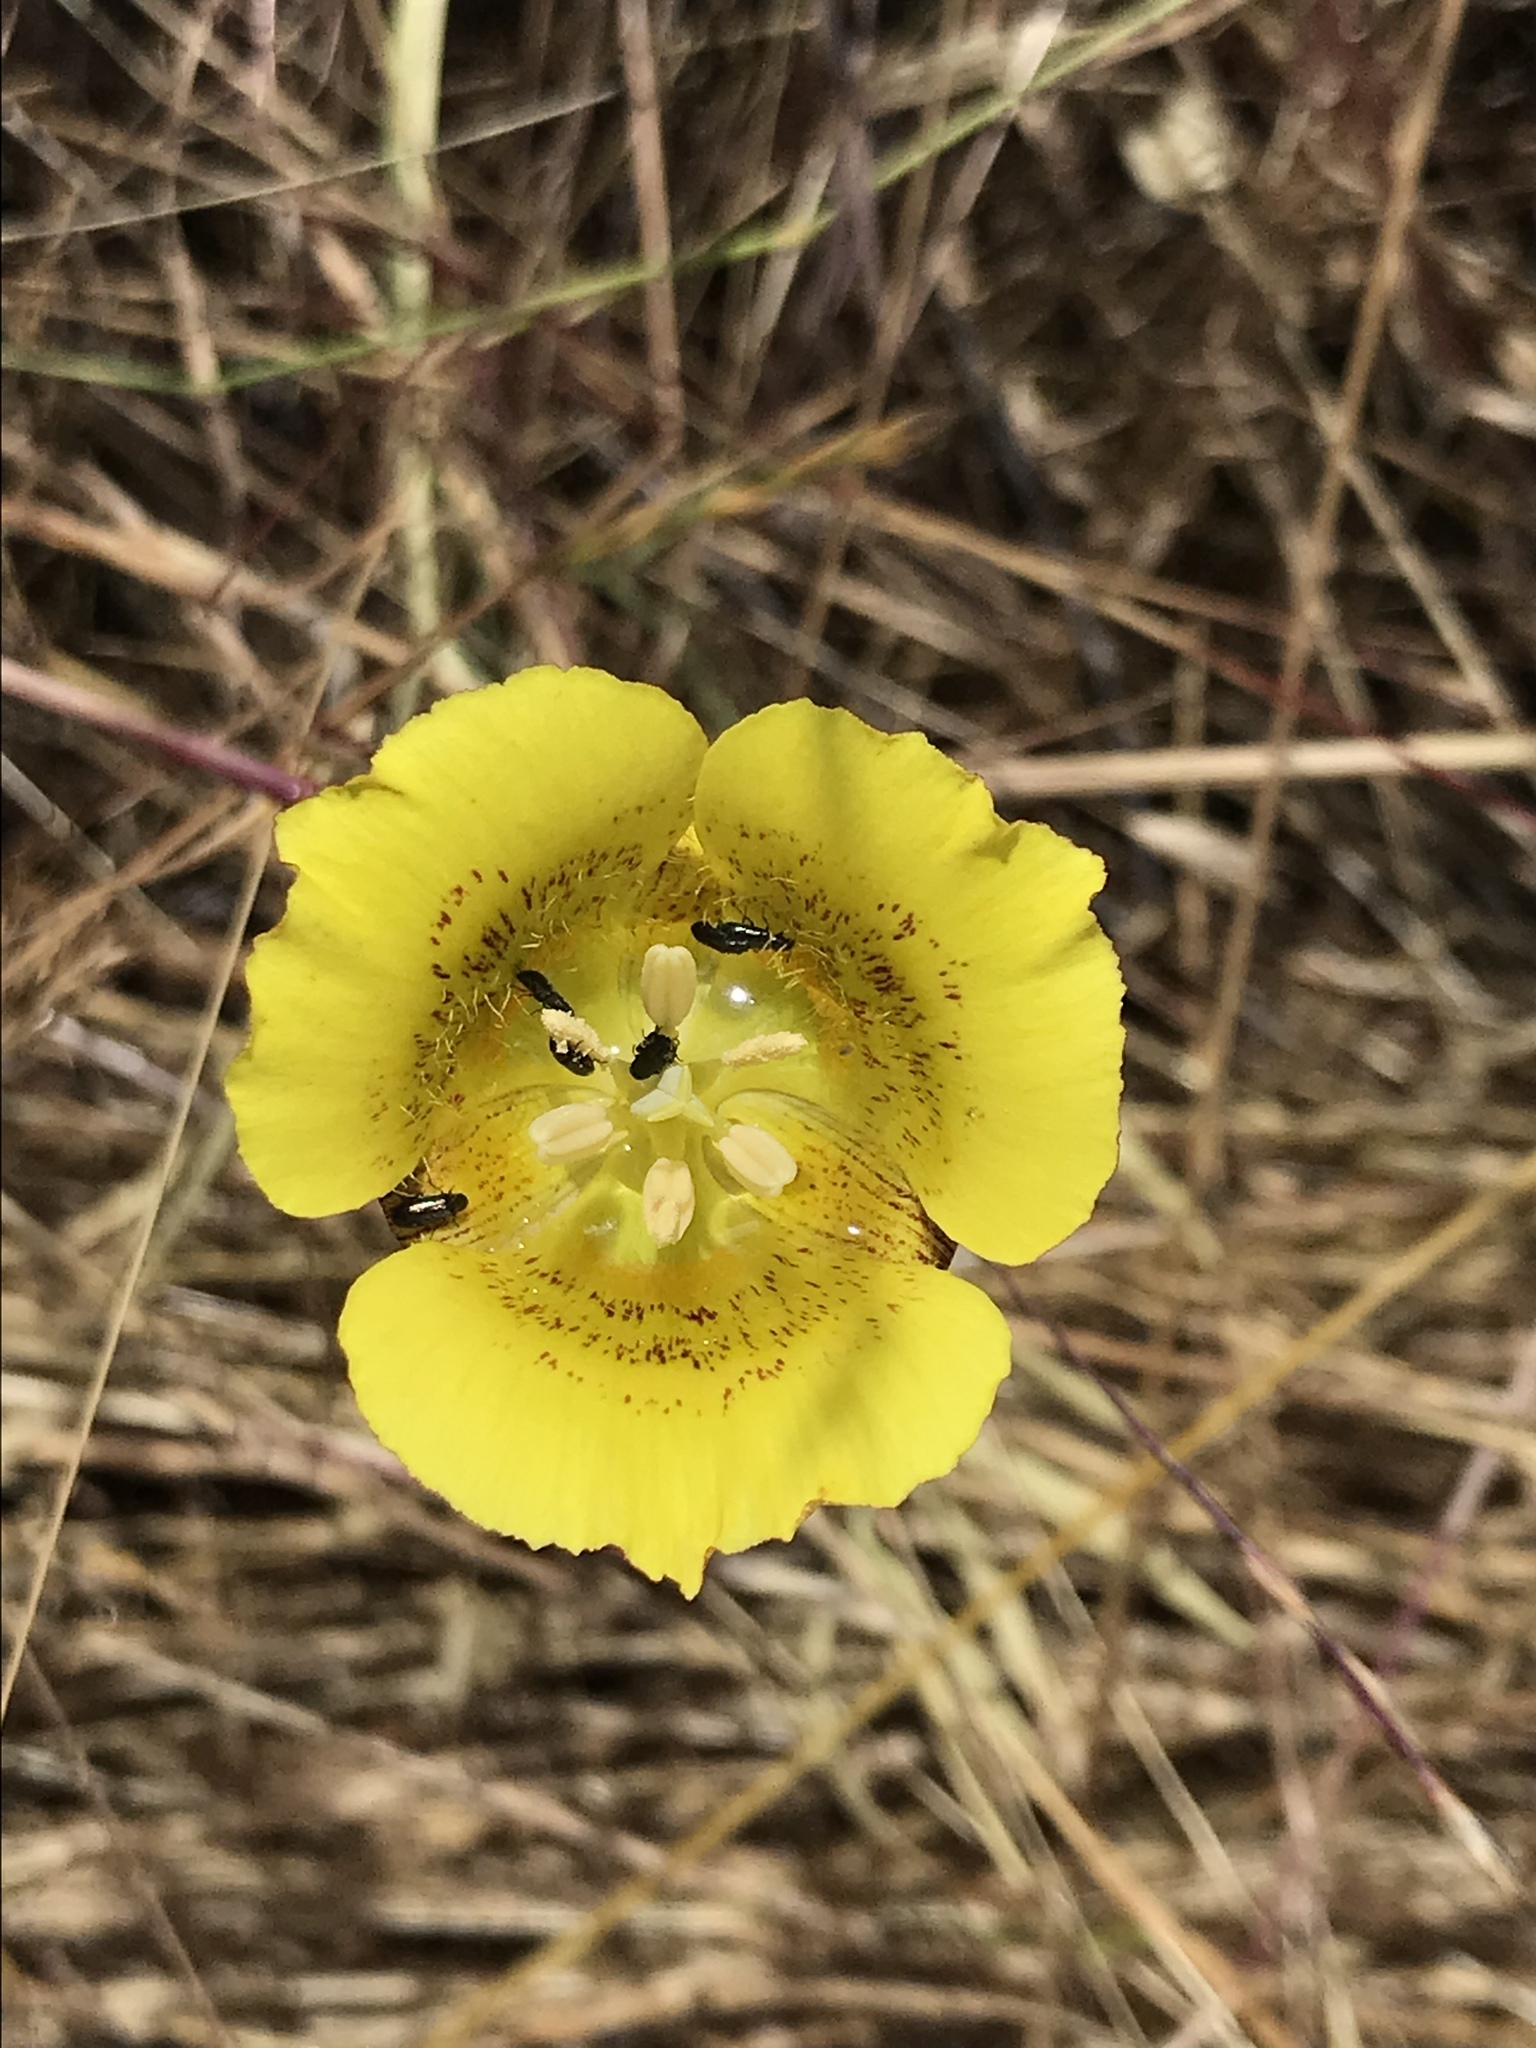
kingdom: Plantae
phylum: Tracheophyta
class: Liliopsida
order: Liliales
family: Liliaceae
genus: Calochortus
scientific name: Calochortus luteus
